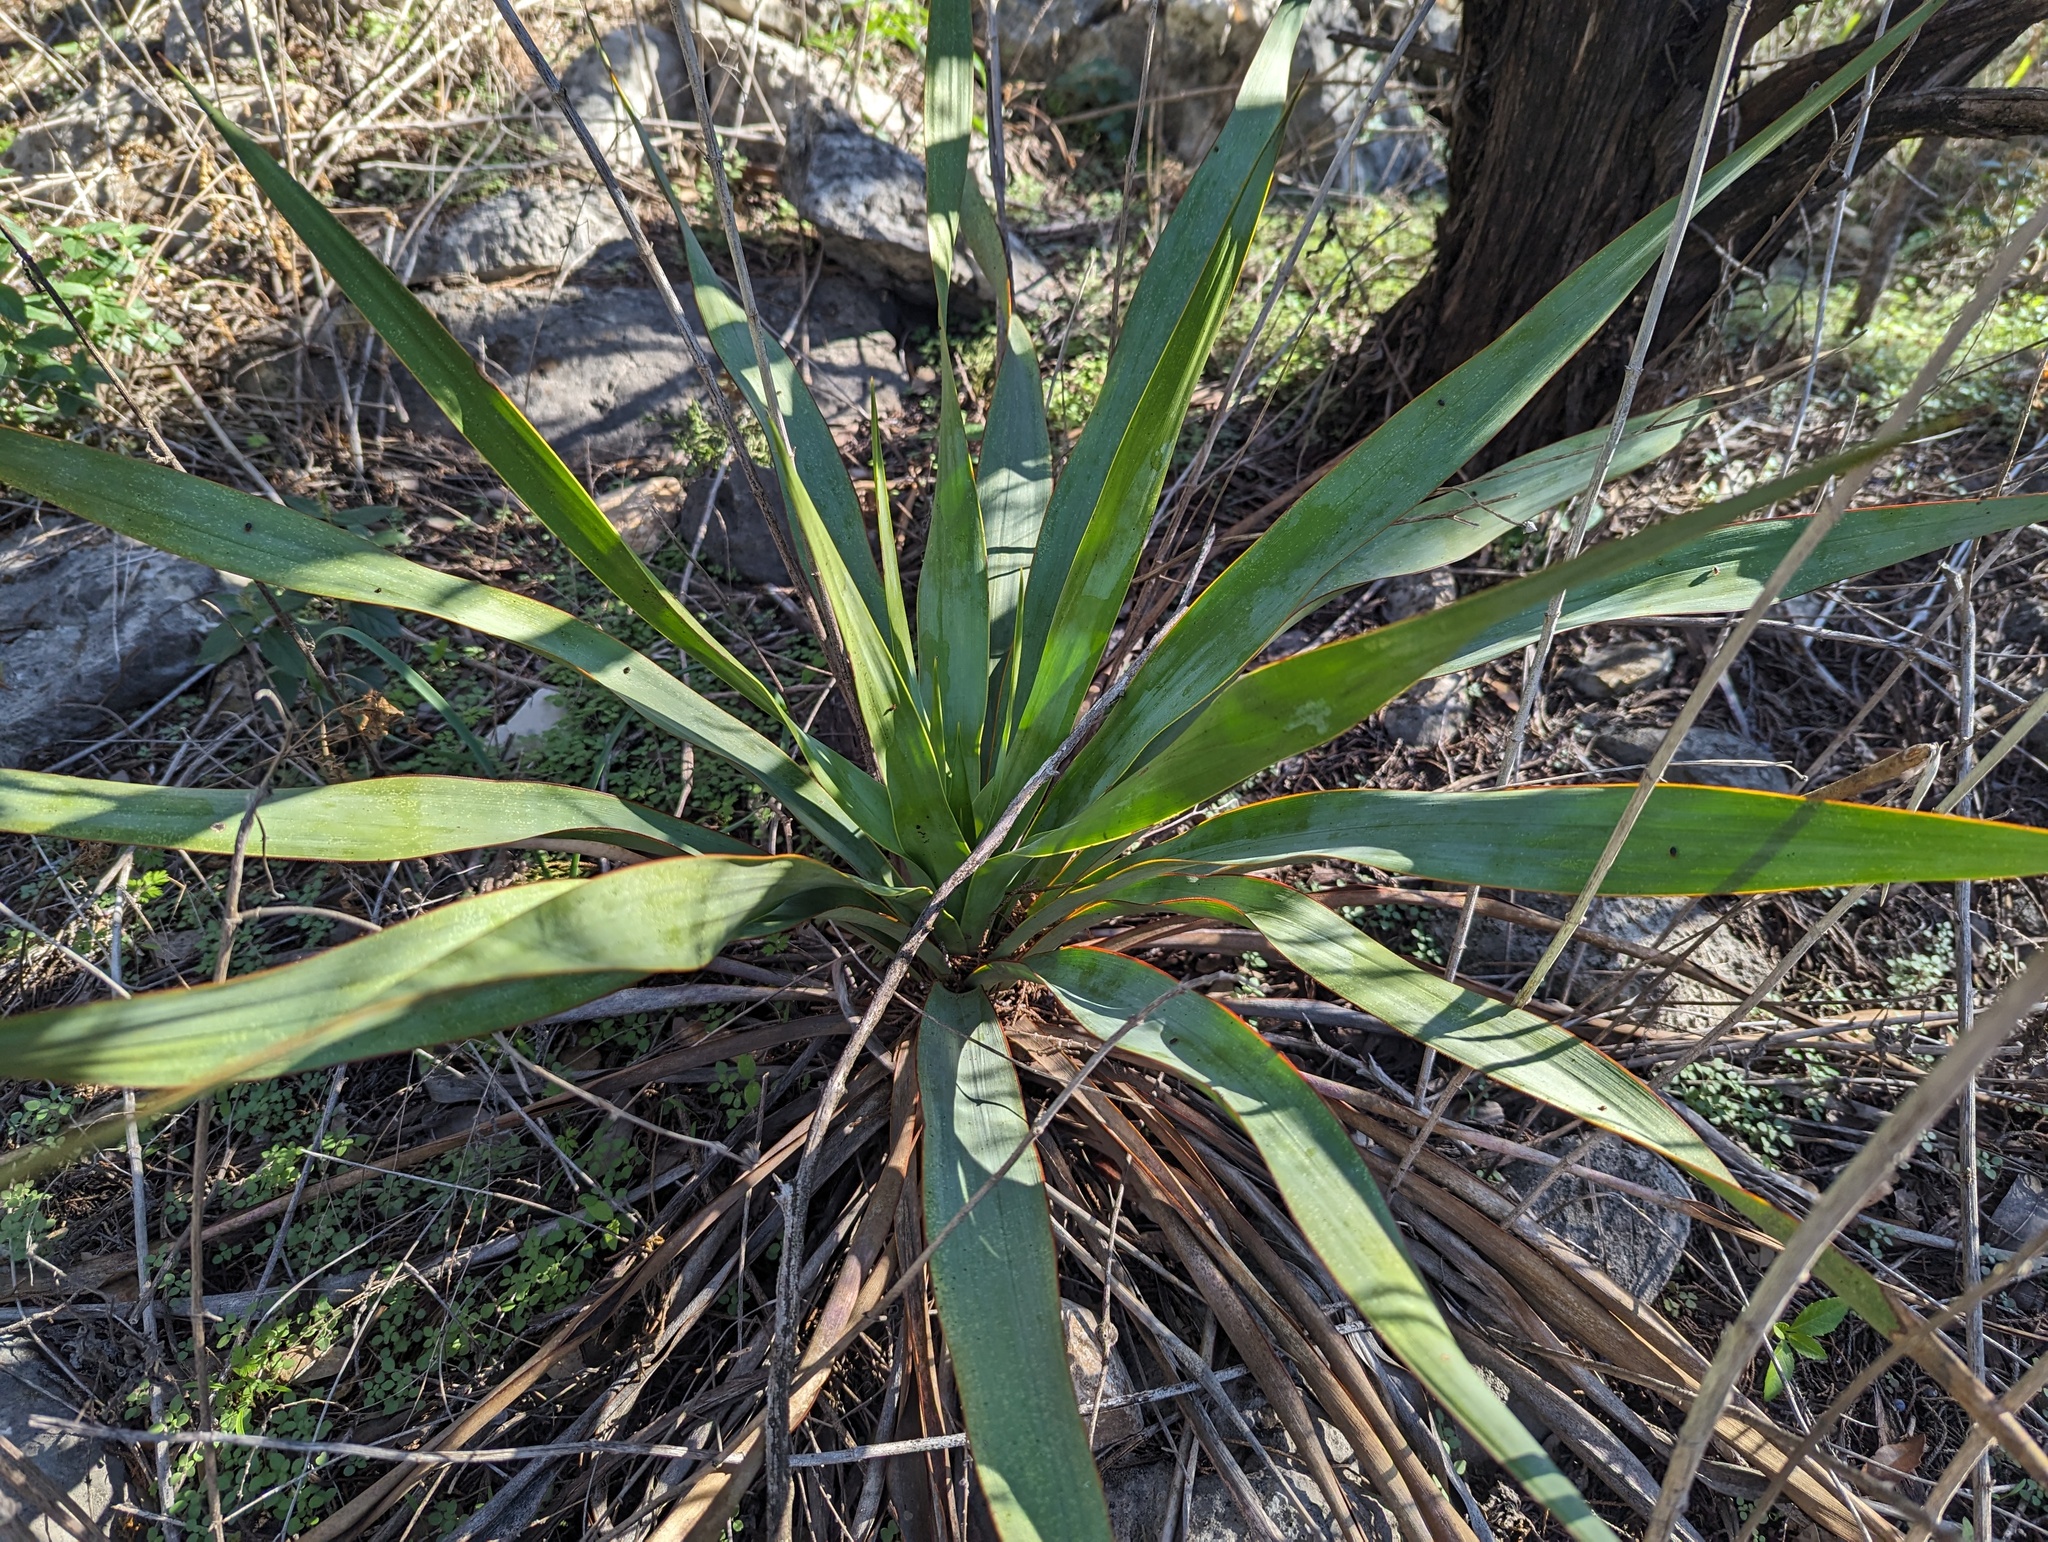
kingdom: Plantae
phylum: Tracheophyta
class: Liliopsida
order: Asparagales
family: Asparagaceae
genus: Yucca
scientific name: Yucca rupicola
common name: Twisted-leaf spanish-dagger
